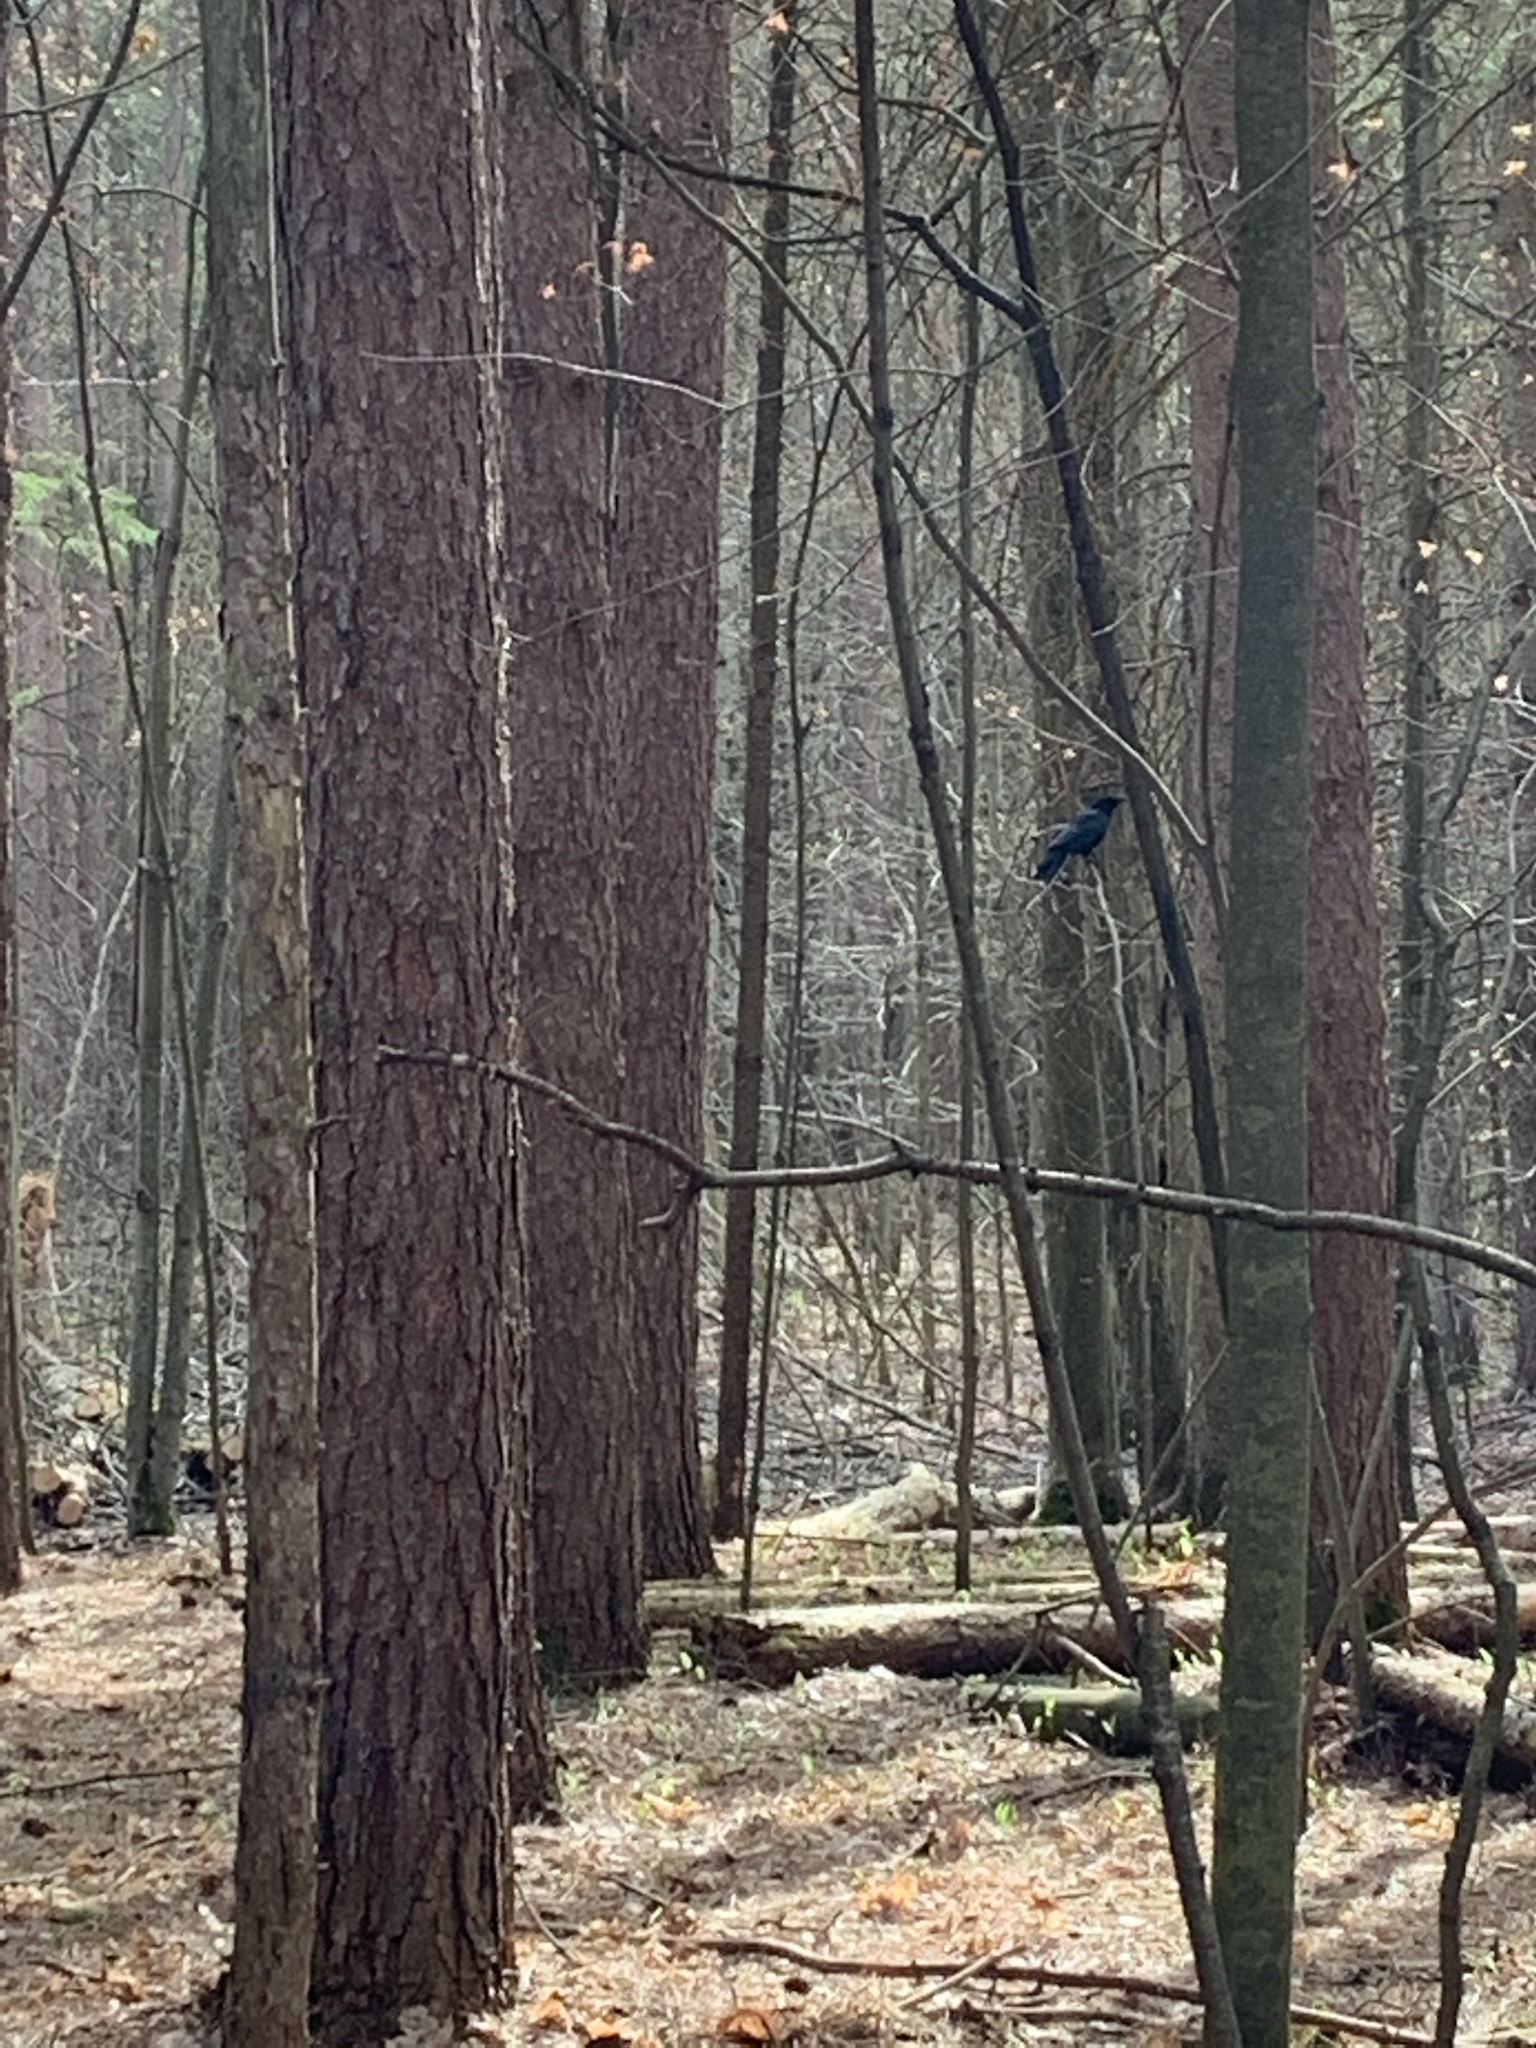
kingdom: Animalia
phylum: Chordata
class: Aves
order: Passeriformes
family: Corvidae
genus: Corvus
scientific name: Corvus brachyrhynchos
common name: American crow
